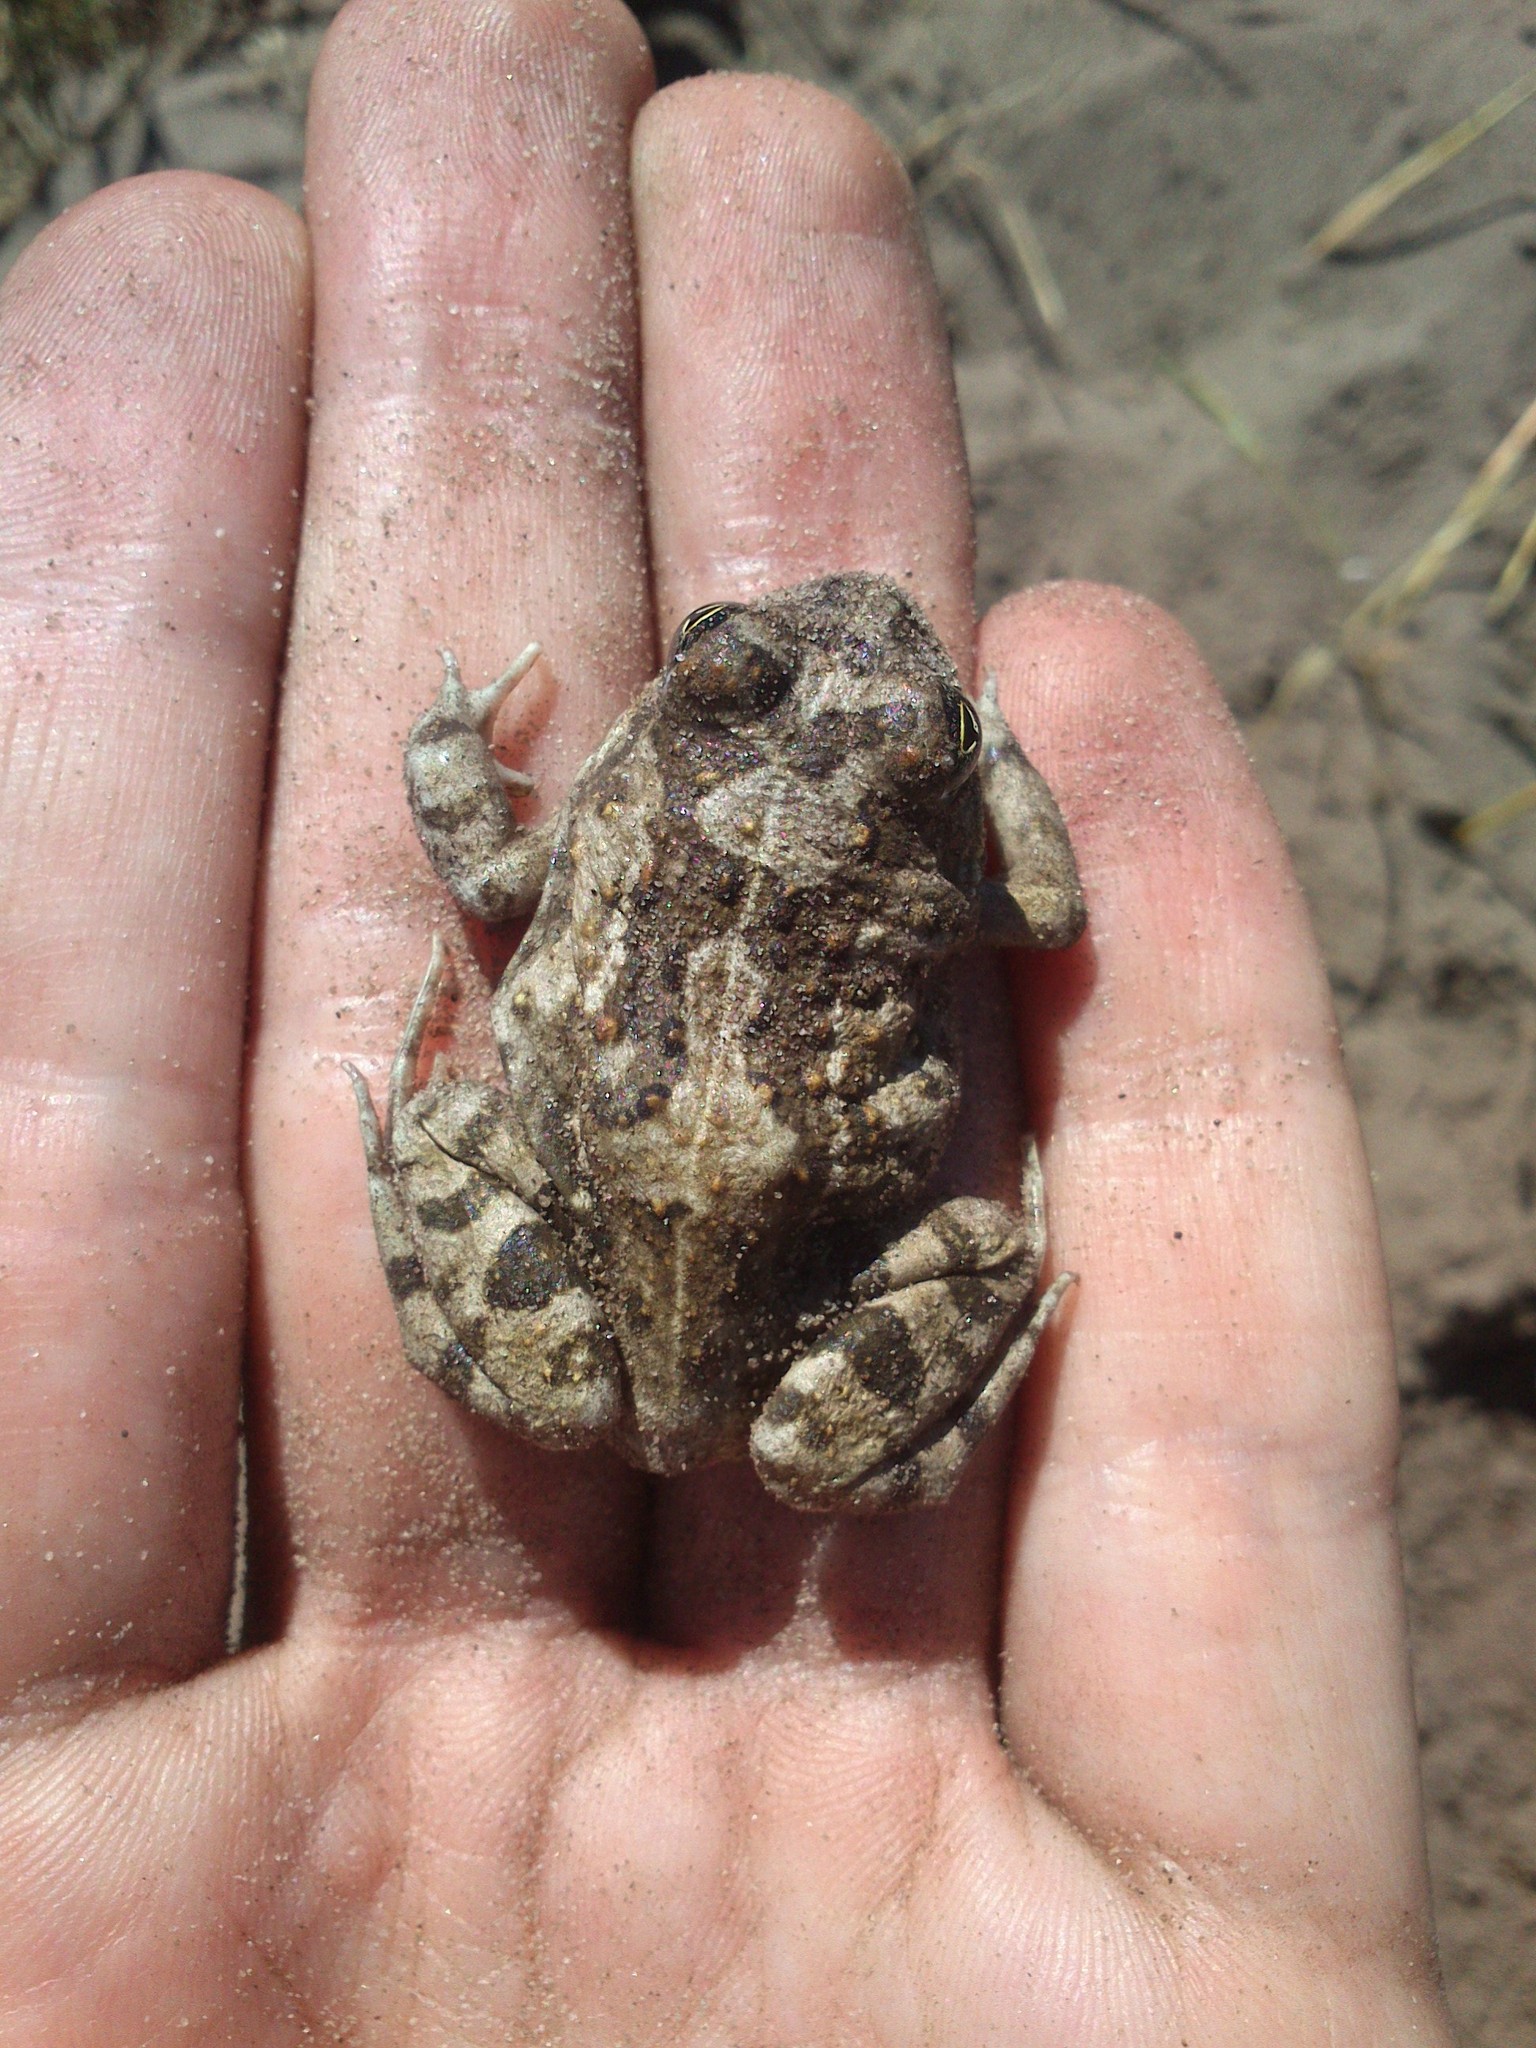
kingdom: Animalia
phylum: Chordata
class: Amphibia
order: Anura
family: Pyxicephalidae
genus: Tomopterna
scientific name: Tomopterna delalandii
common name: Delalande's burrowing bullfrog
